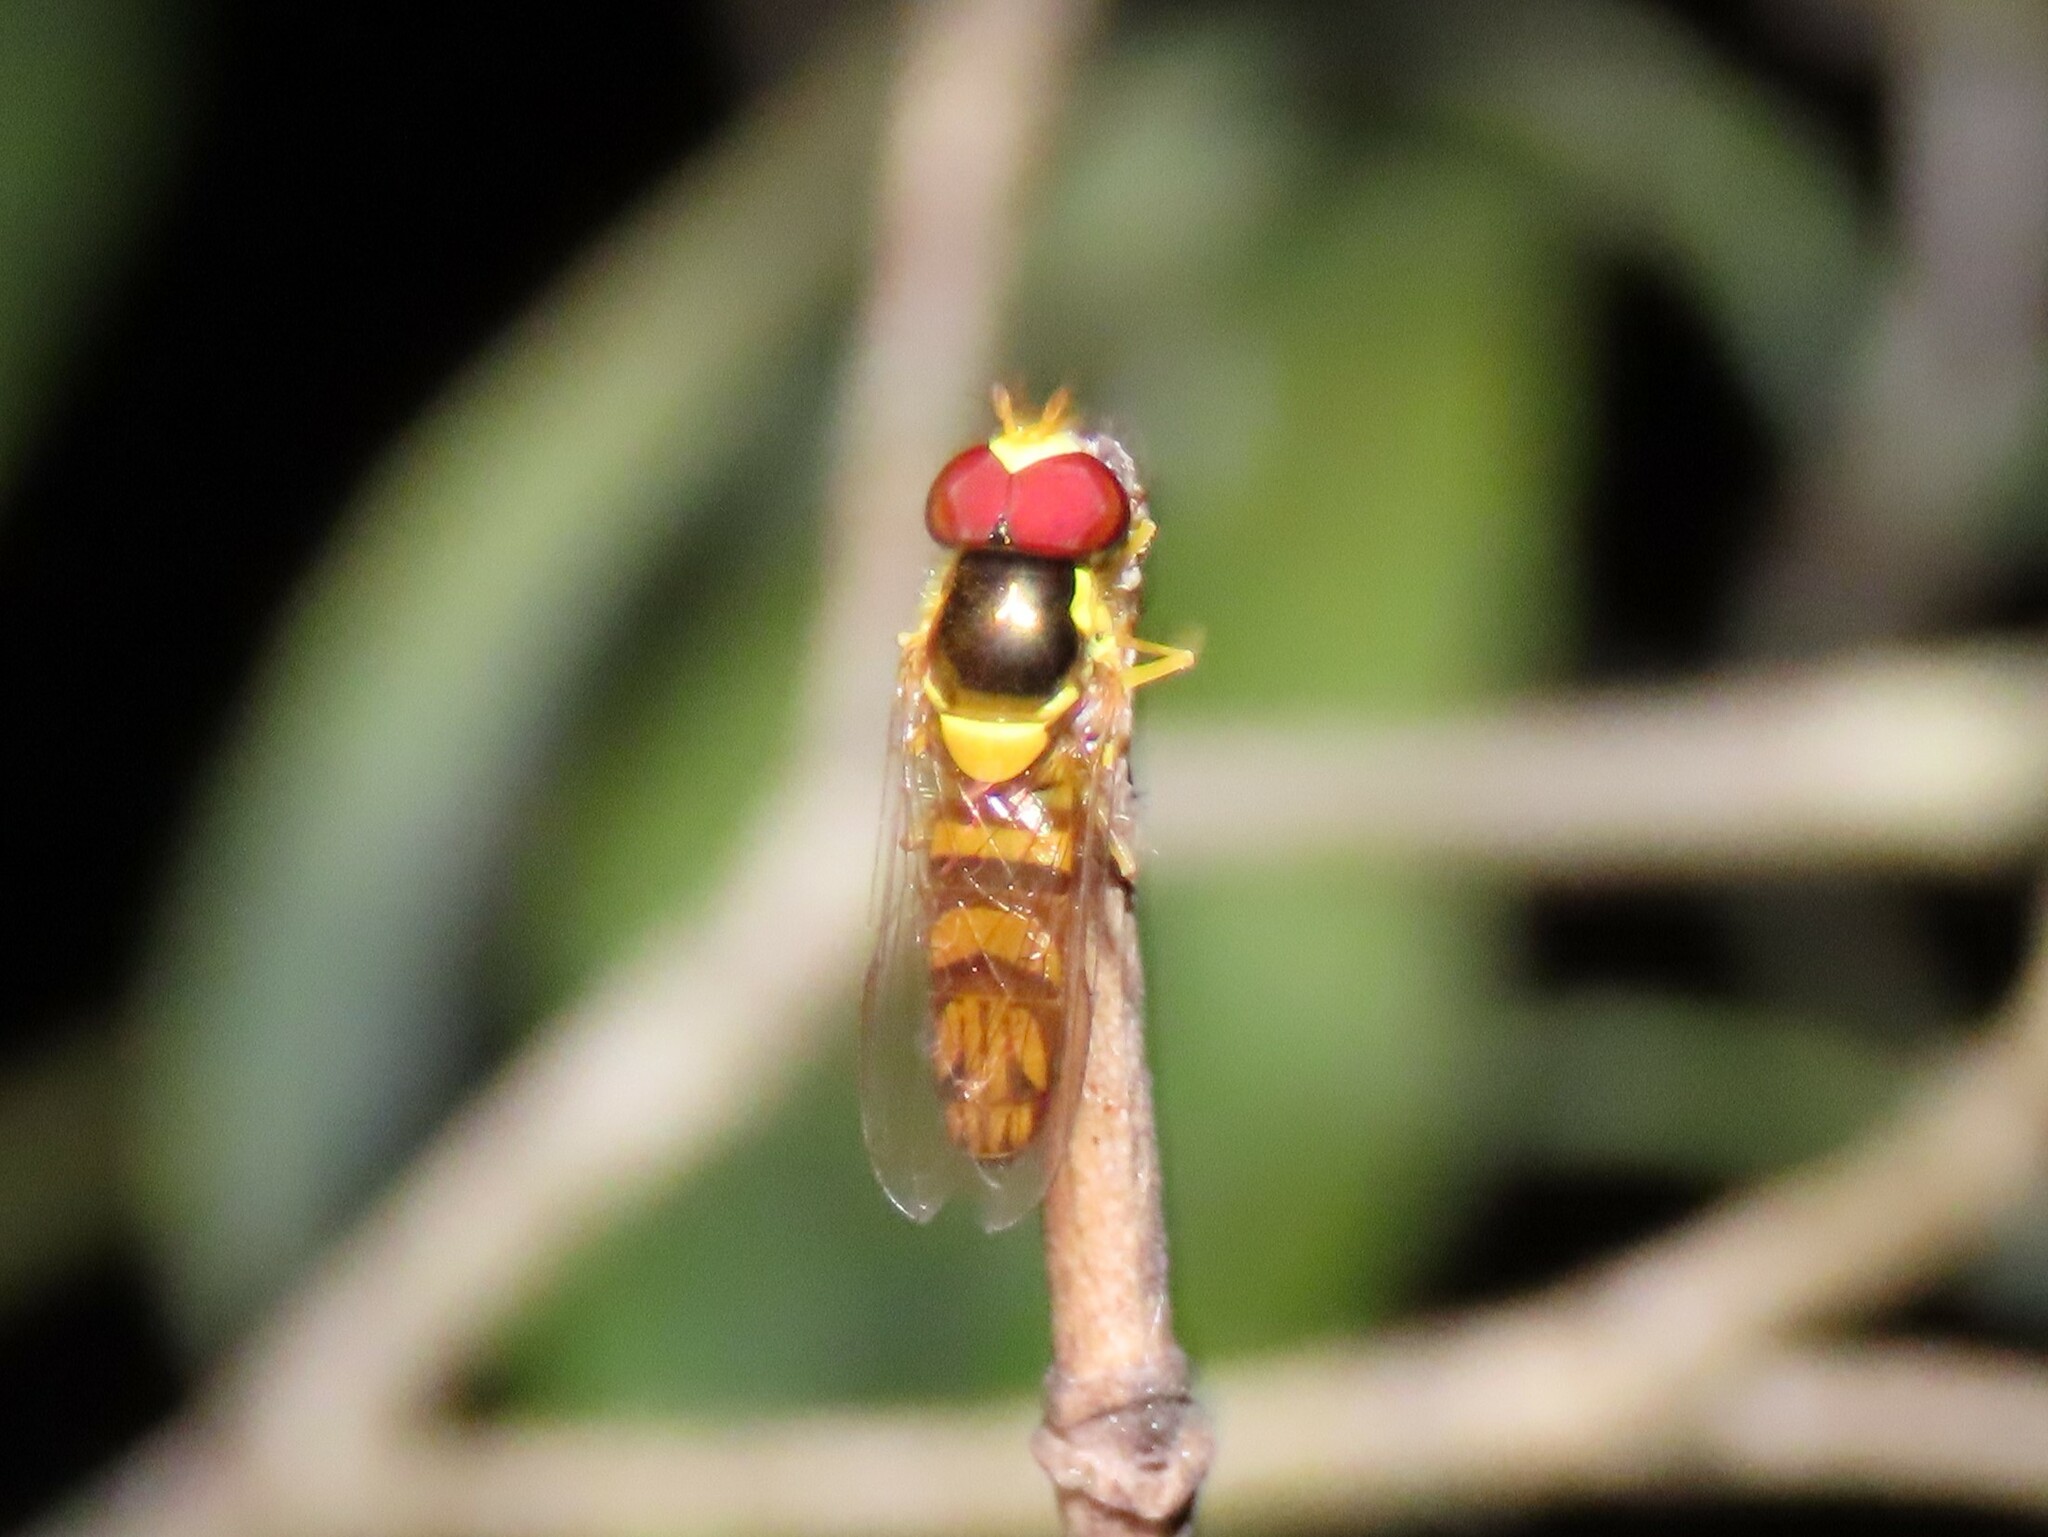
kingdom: Animalia
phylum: Arthropoda
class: Insecta
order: Diptera
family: Syrphidae
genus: Allograpta
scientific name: Allograpta obliqua
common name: Common oblique syrphid
